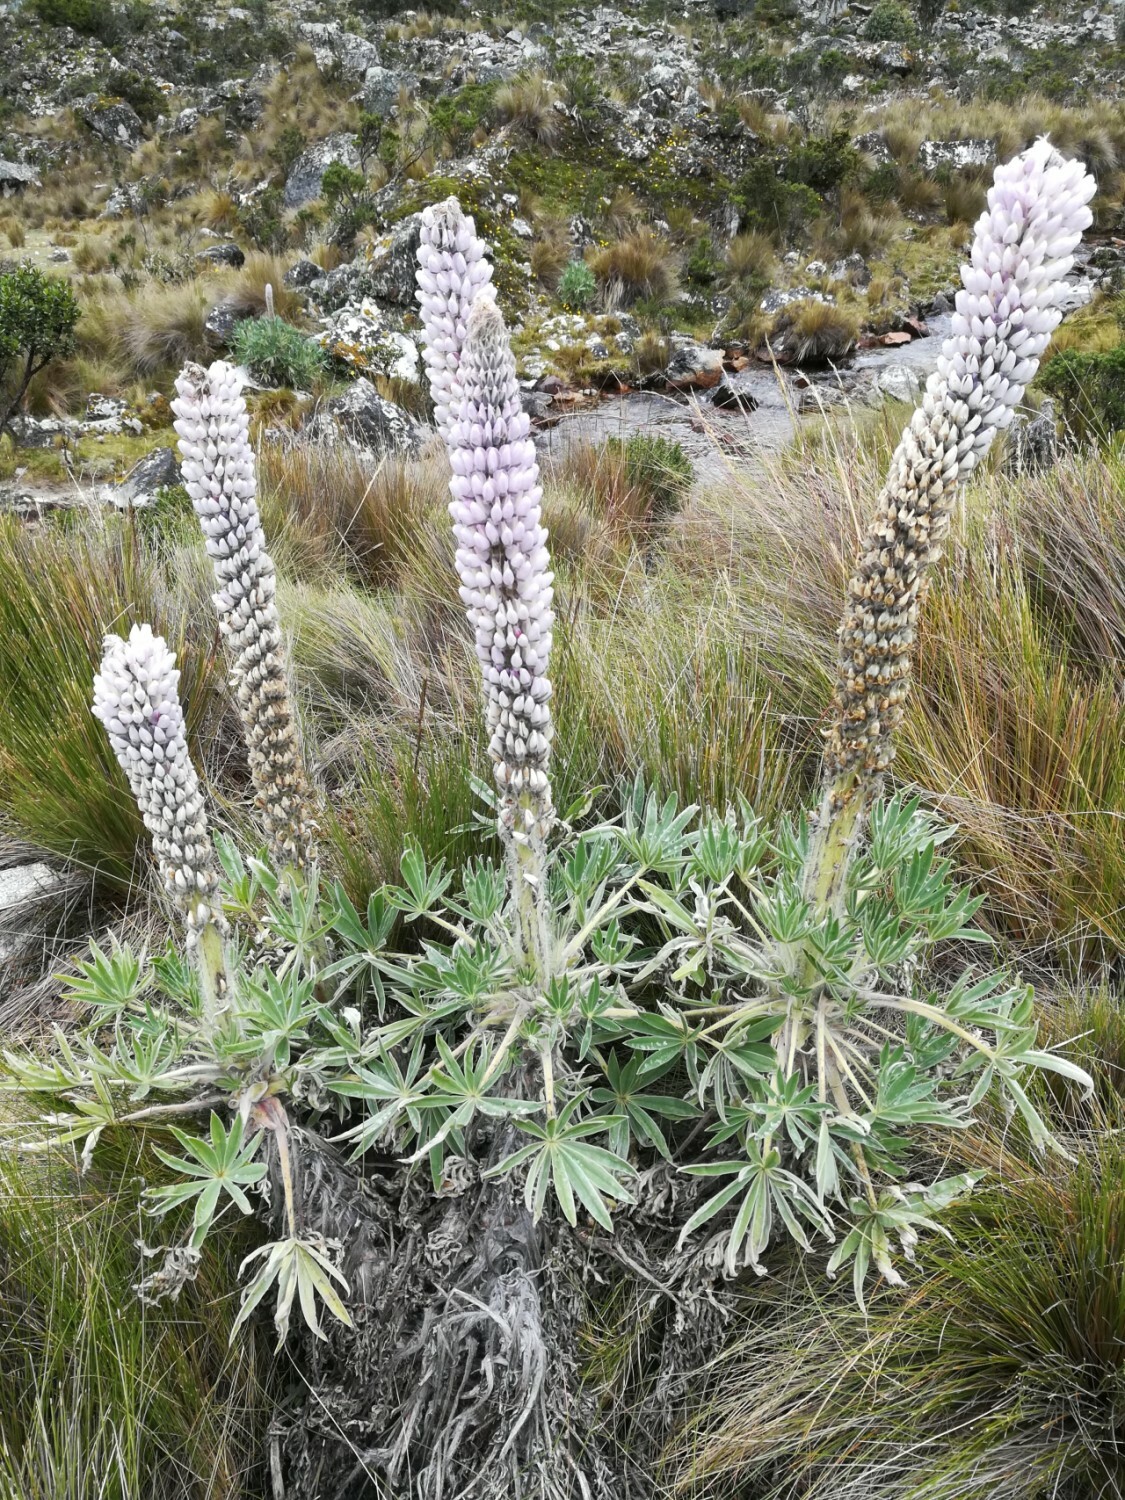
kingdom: Plantae
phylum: Tracheophyta
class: Magnoliopsida
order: Fabales
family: Fabaceae
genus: Lupinus
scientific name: Lupinus weberbaueri
